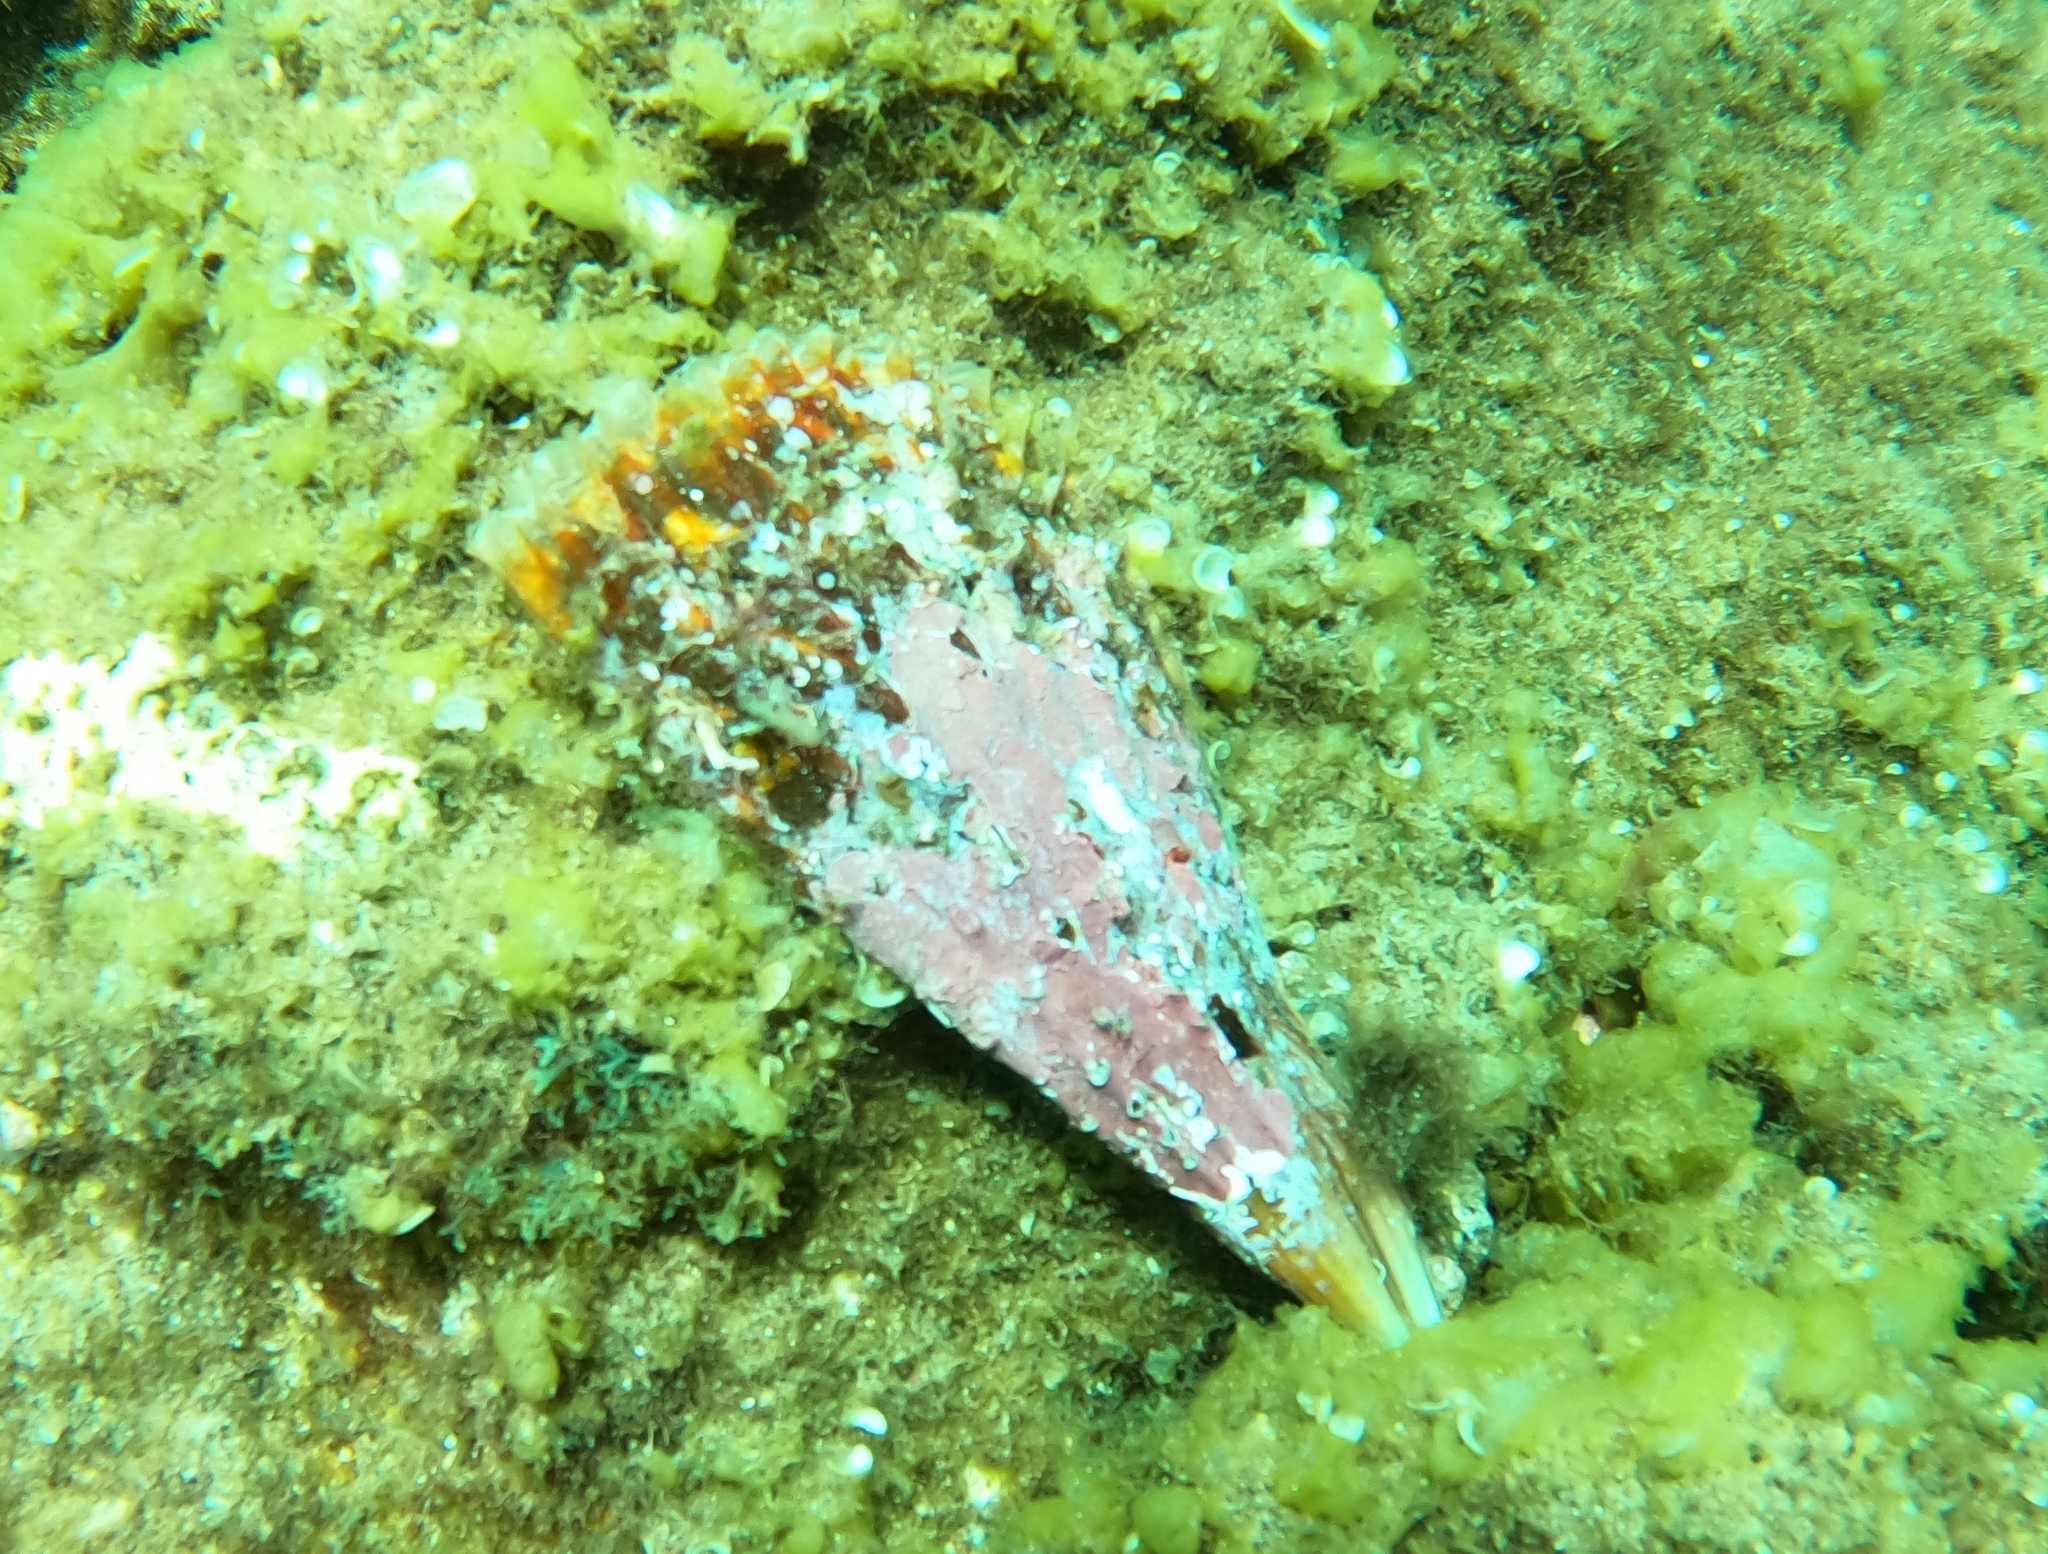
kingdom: Animalia
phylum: Mollusca
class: Bivalvia
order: Ostreida
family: Pinnidae
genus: Pinna
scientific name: Pinna rudis
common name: Rough penshell
